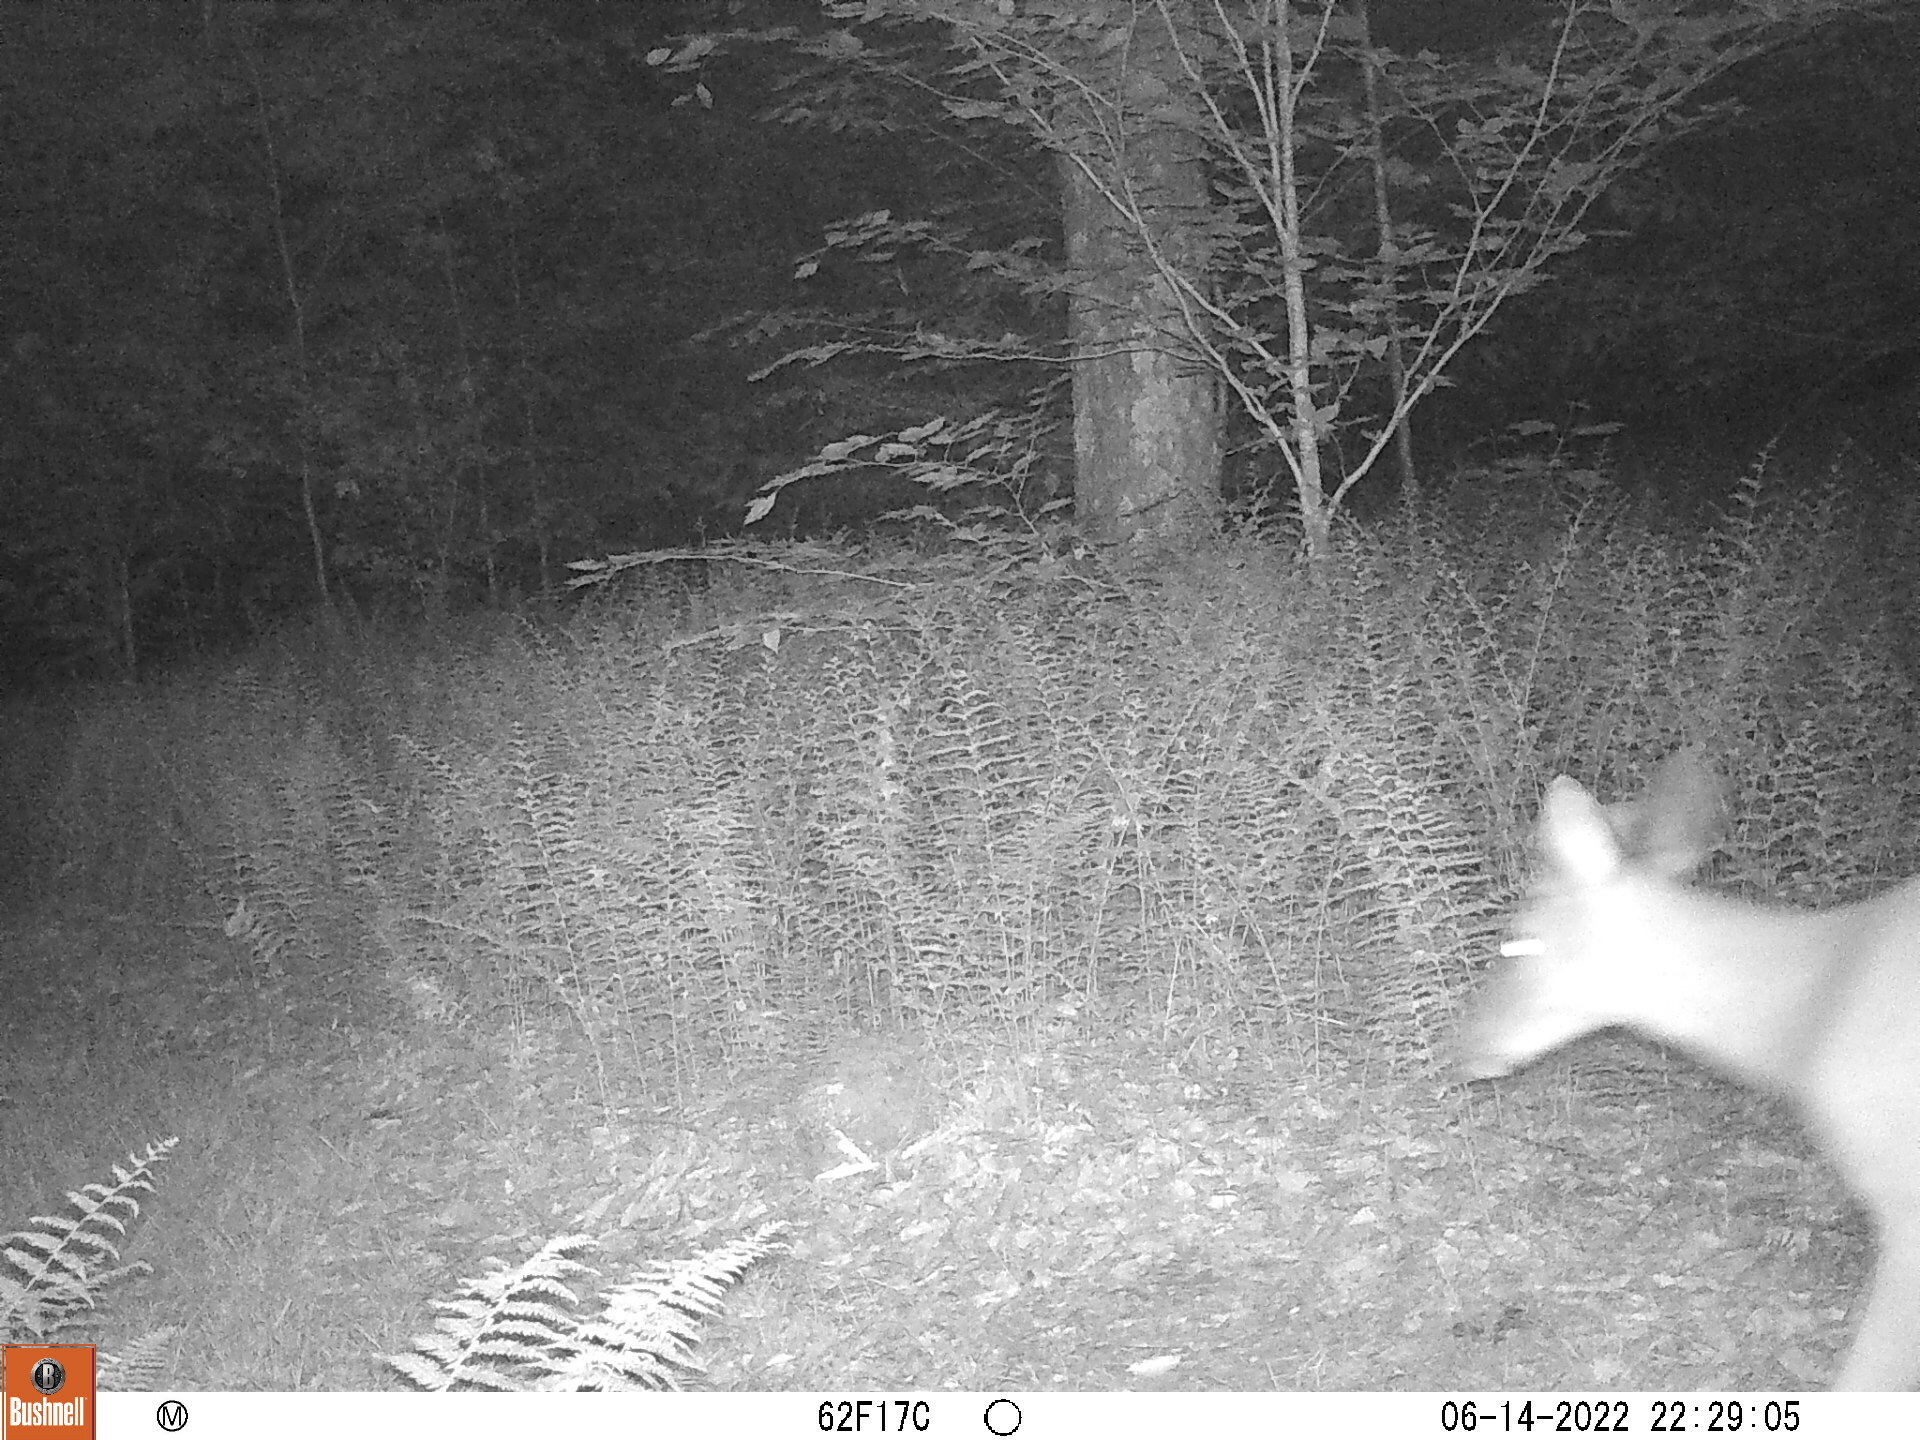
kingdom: Animalia
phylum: Chordata
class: Mammalia
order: Artiodactyla
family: Cervidae
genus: Odocoileus
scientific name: Odocoileus virginianus
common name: White-tailed deer
